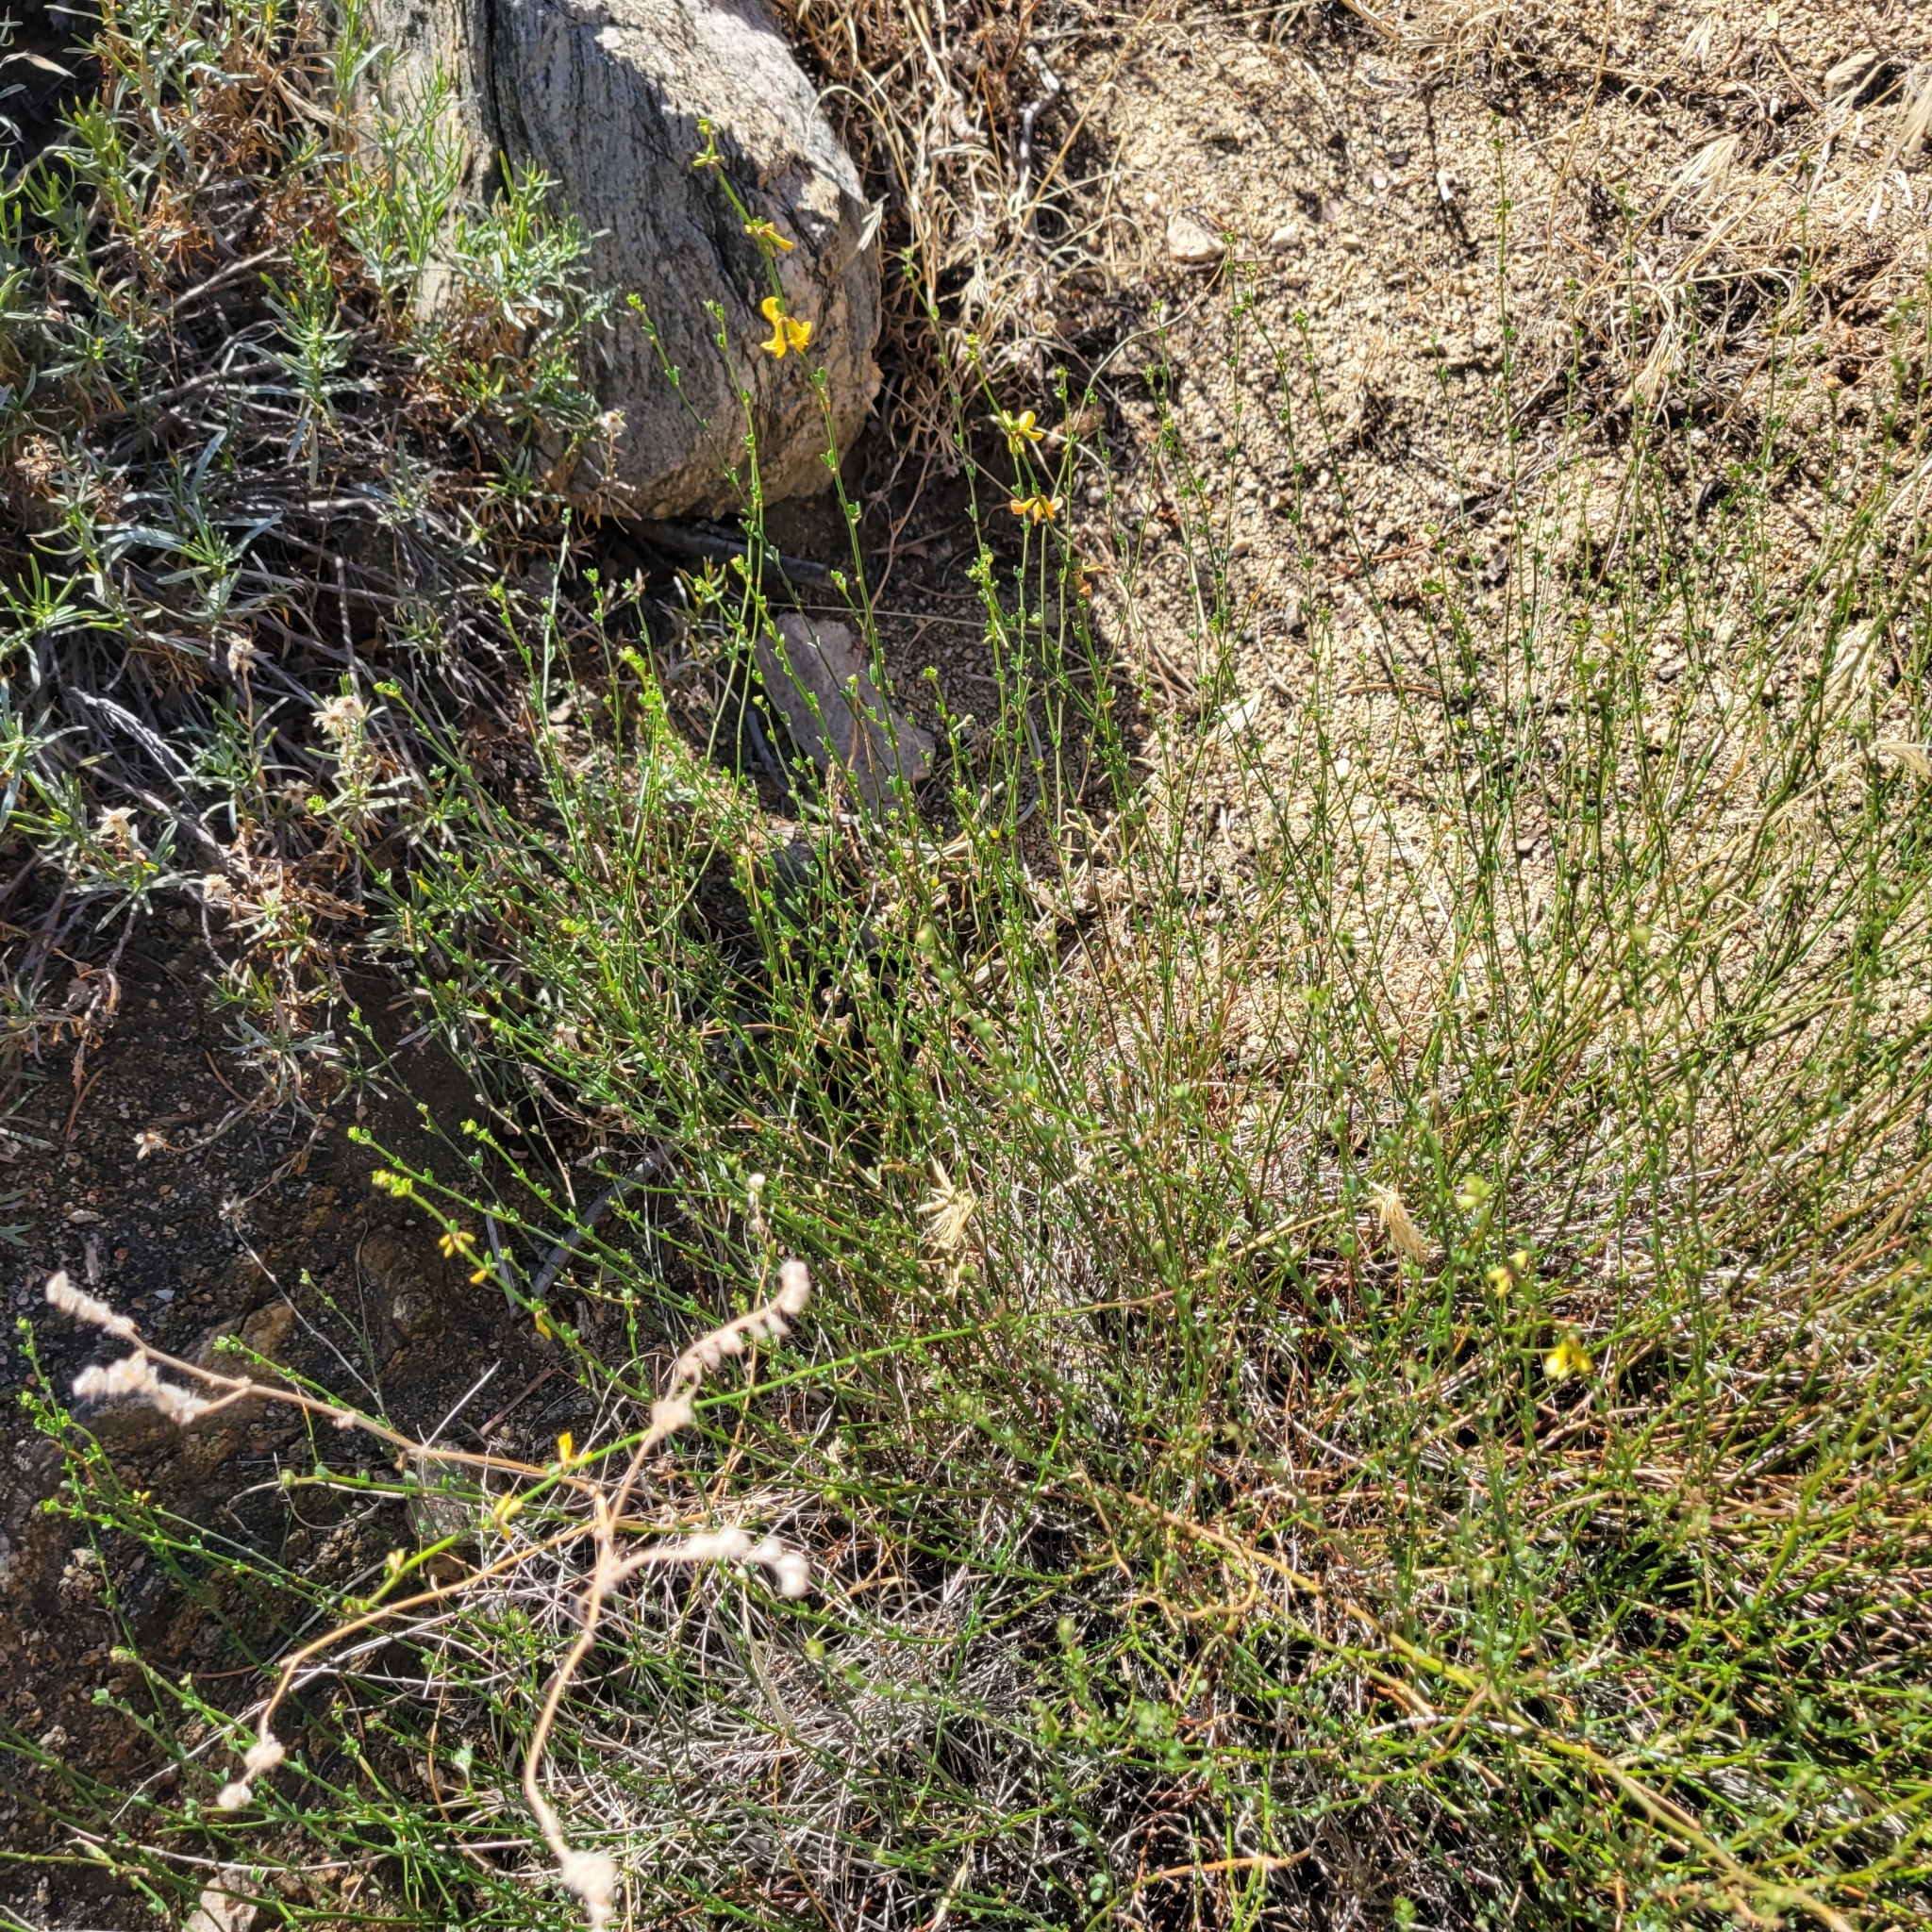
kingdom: Plantae
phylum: Tracheophyta
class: Magnoliopsida
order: Fabales
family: Fabaceae
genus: Acmispon
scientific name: Acmispon glaber
